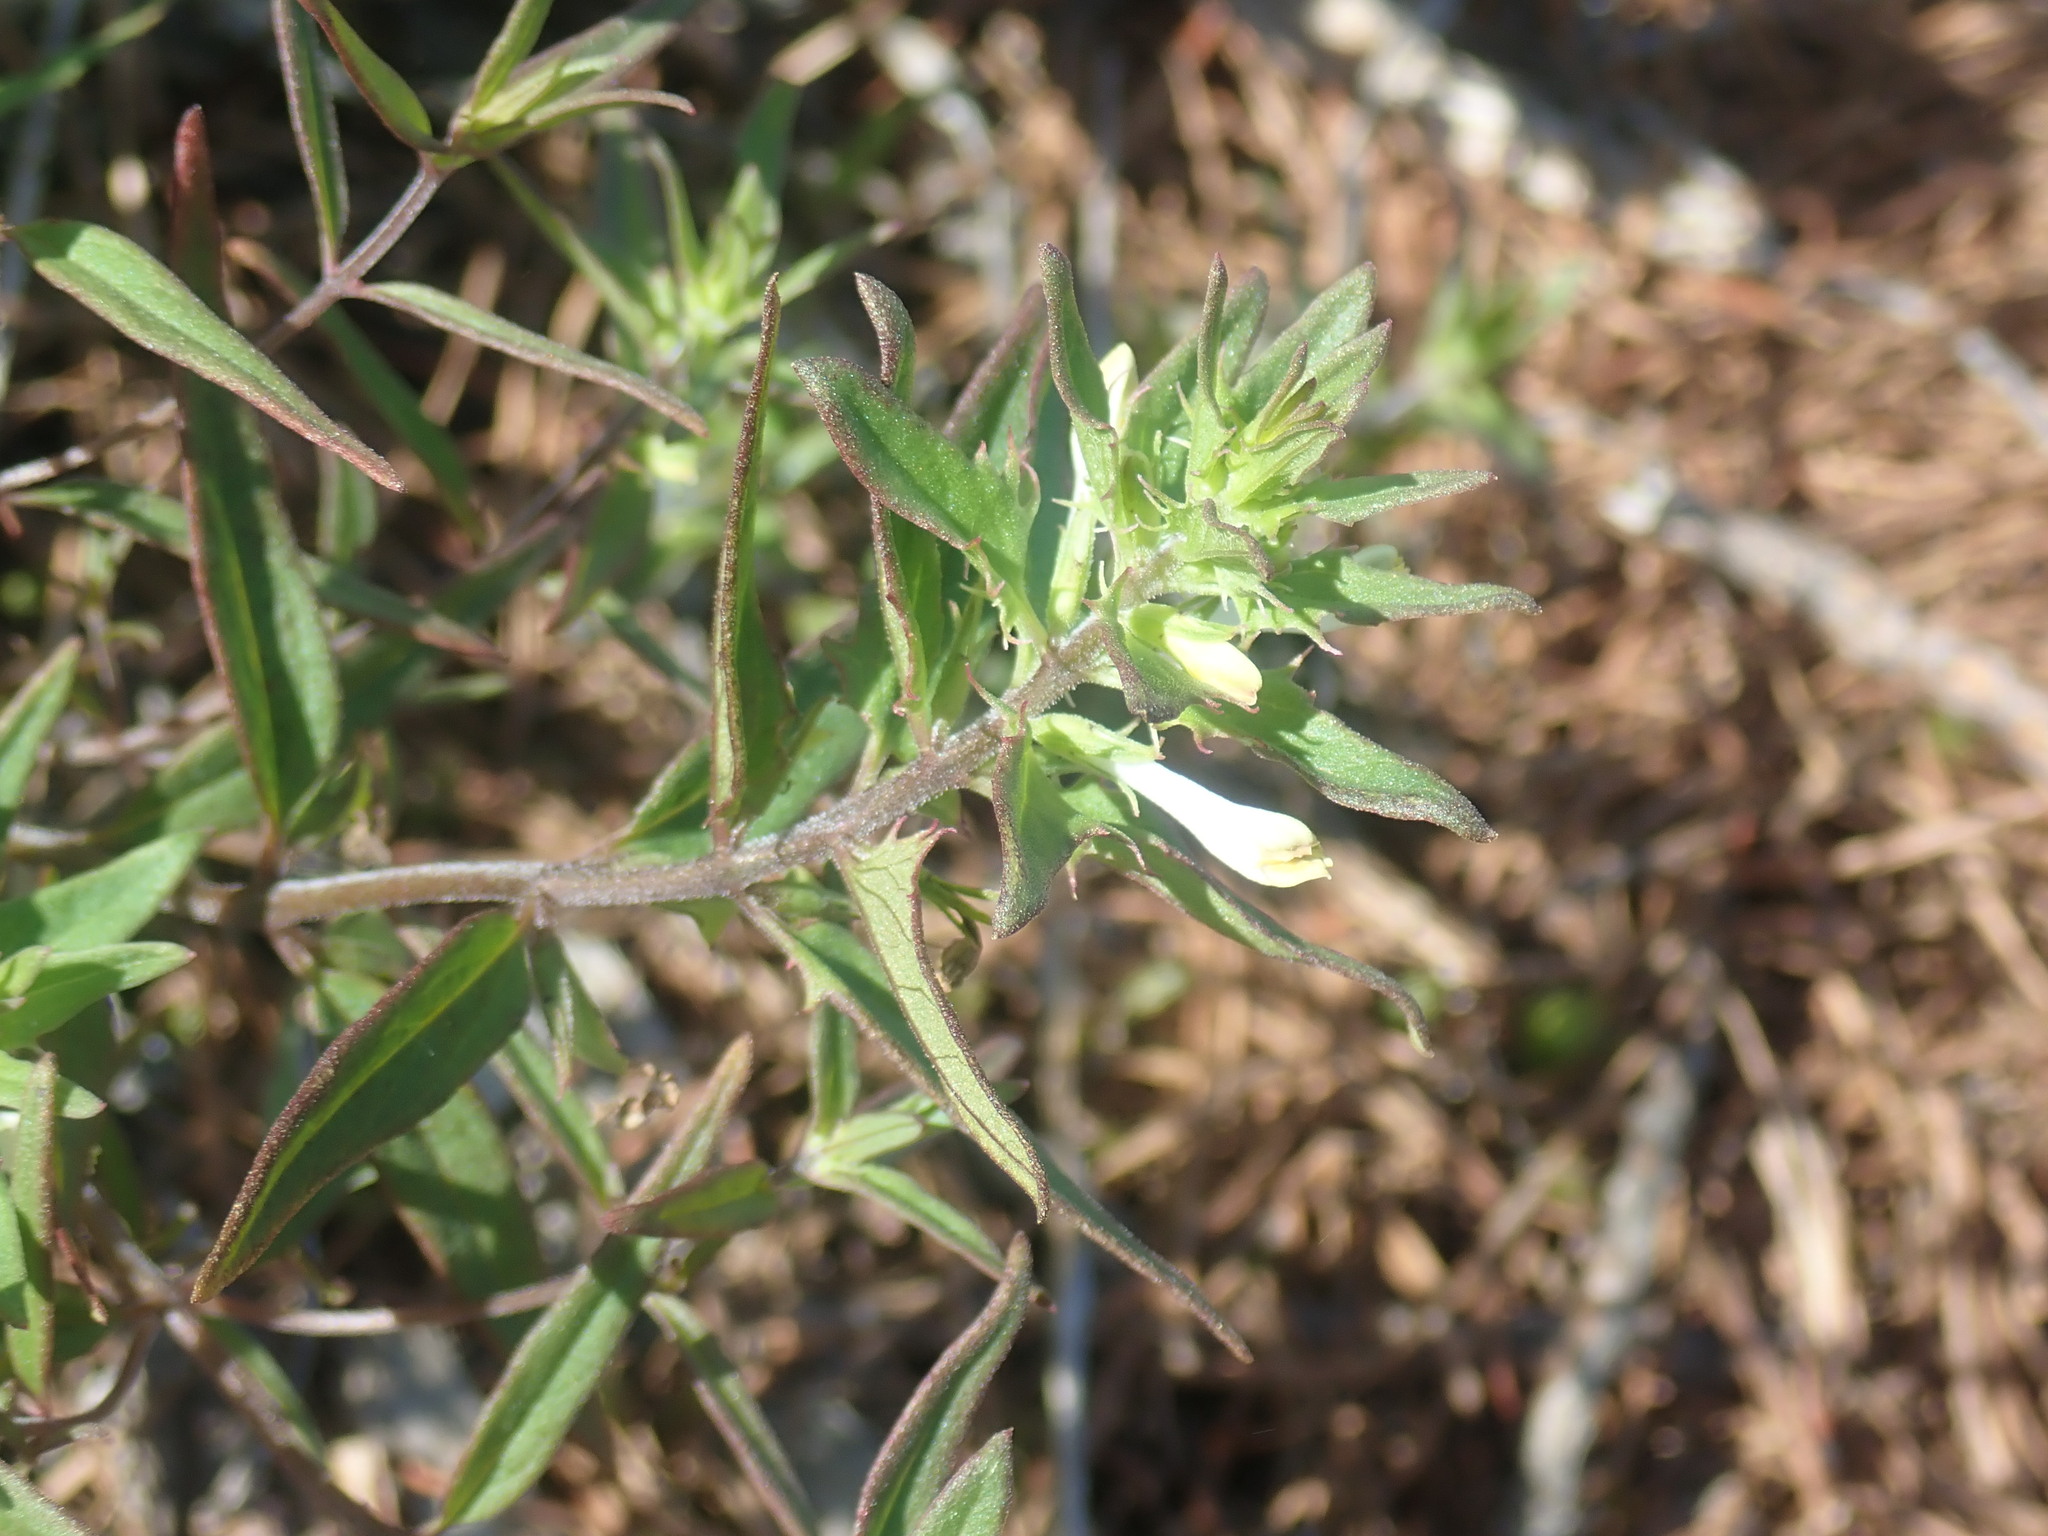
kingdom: Plantae
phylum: Tracheophyta
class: Magnoliopsida
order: Lamiales
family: Orobanchaceae
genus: Melampyrum
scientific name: Melampyrum lineare
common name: American cow-wheat
